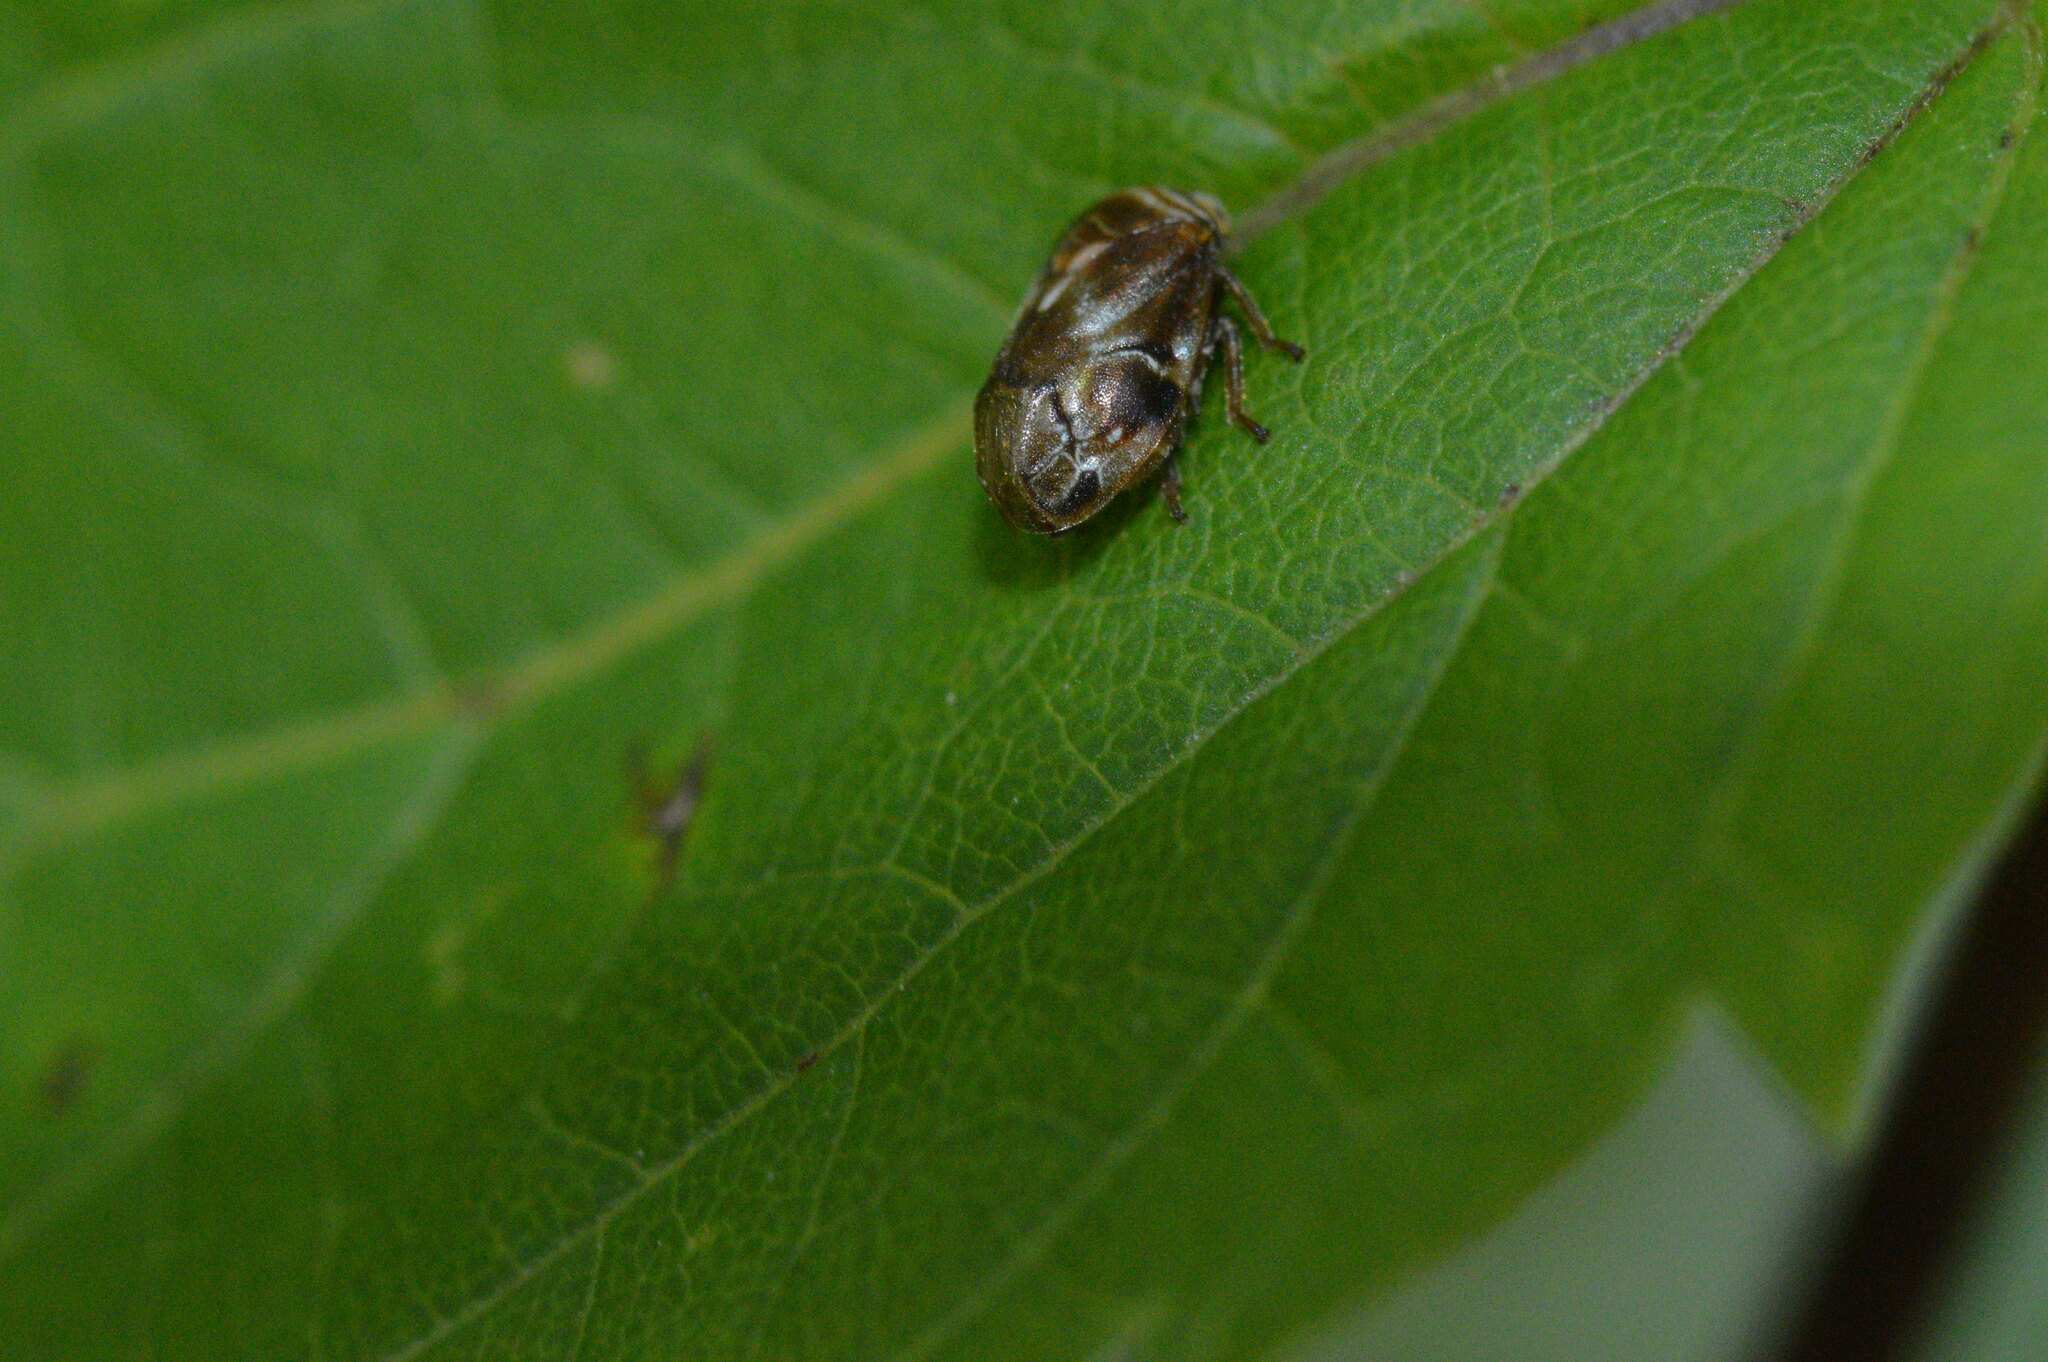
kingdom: Animalia
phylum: Arthropoda
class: Insecta
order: Hemiptera
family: Clastopteridae
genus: Clastoptera
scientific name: Clastoptera obtusa
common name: Alder spittlebug
